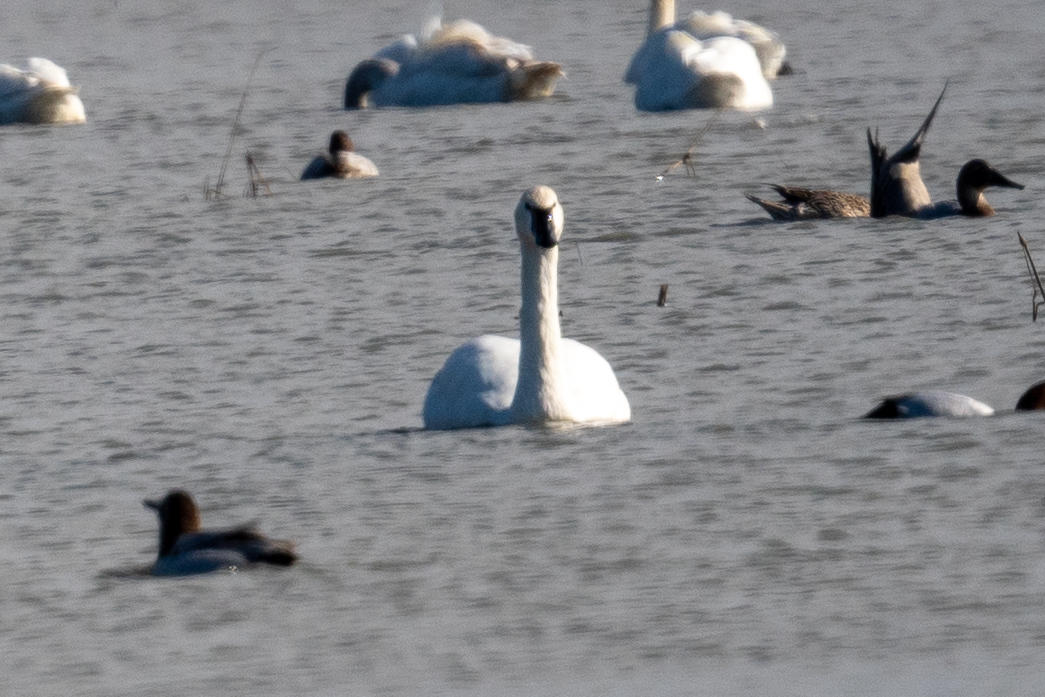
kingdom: Animalia
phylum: Chordata
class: Aves
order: Anseriformes
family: Anatidae
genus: Cygnus
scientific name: Cygnus columbianus
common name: Tundra swan
